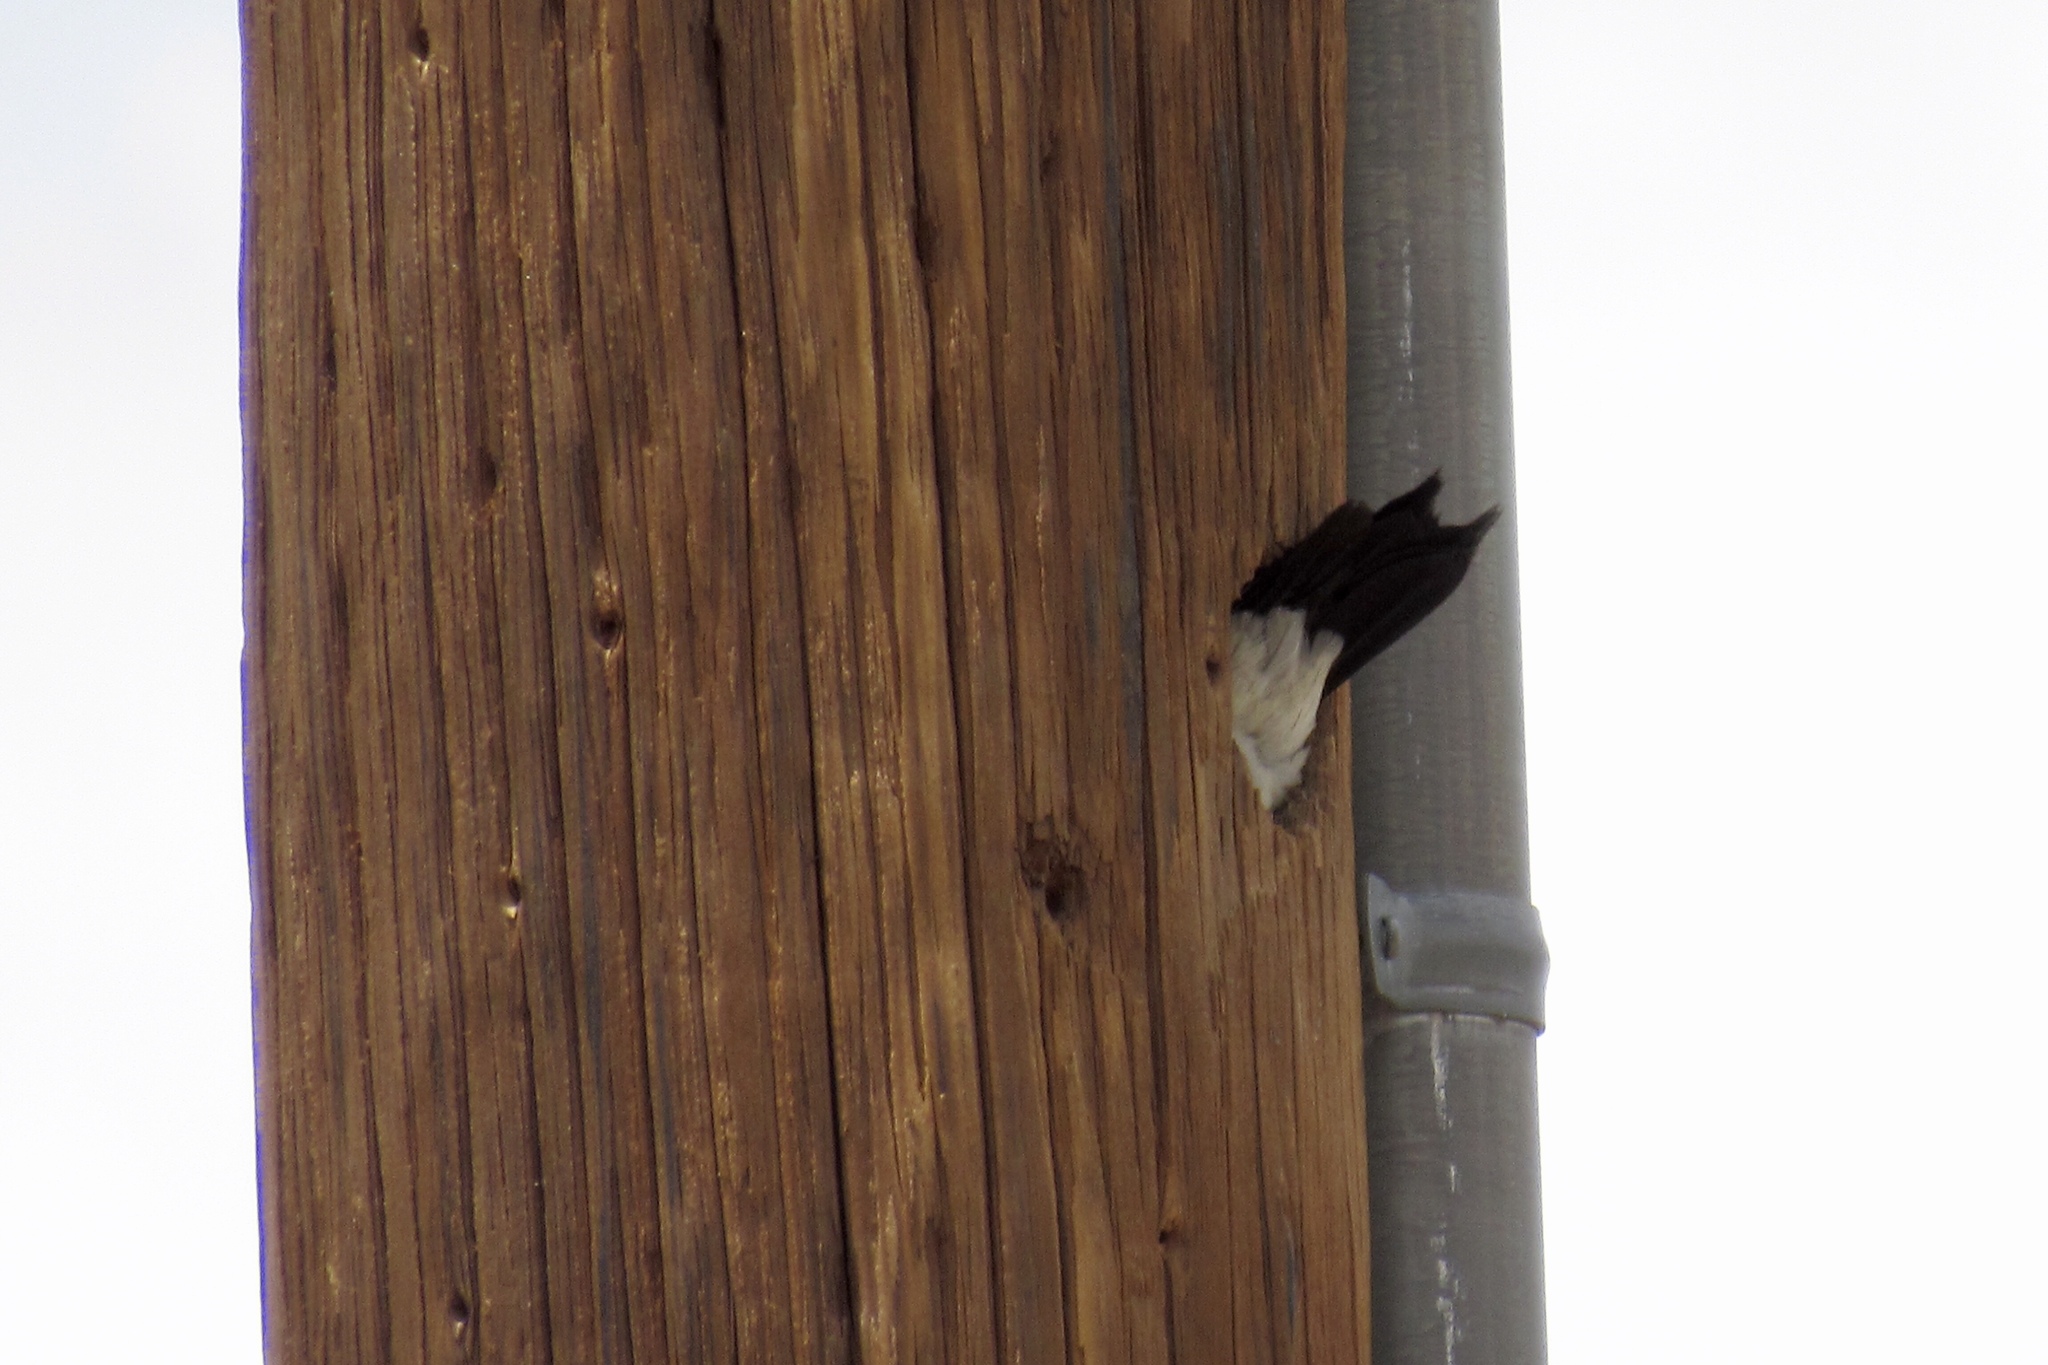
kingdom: Animalia
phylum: Chordata
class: Aves
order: Piciformes
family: Picidae
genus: Melanerpes
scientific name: Melanerpes formicivorus
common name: Acorn woodpecker
